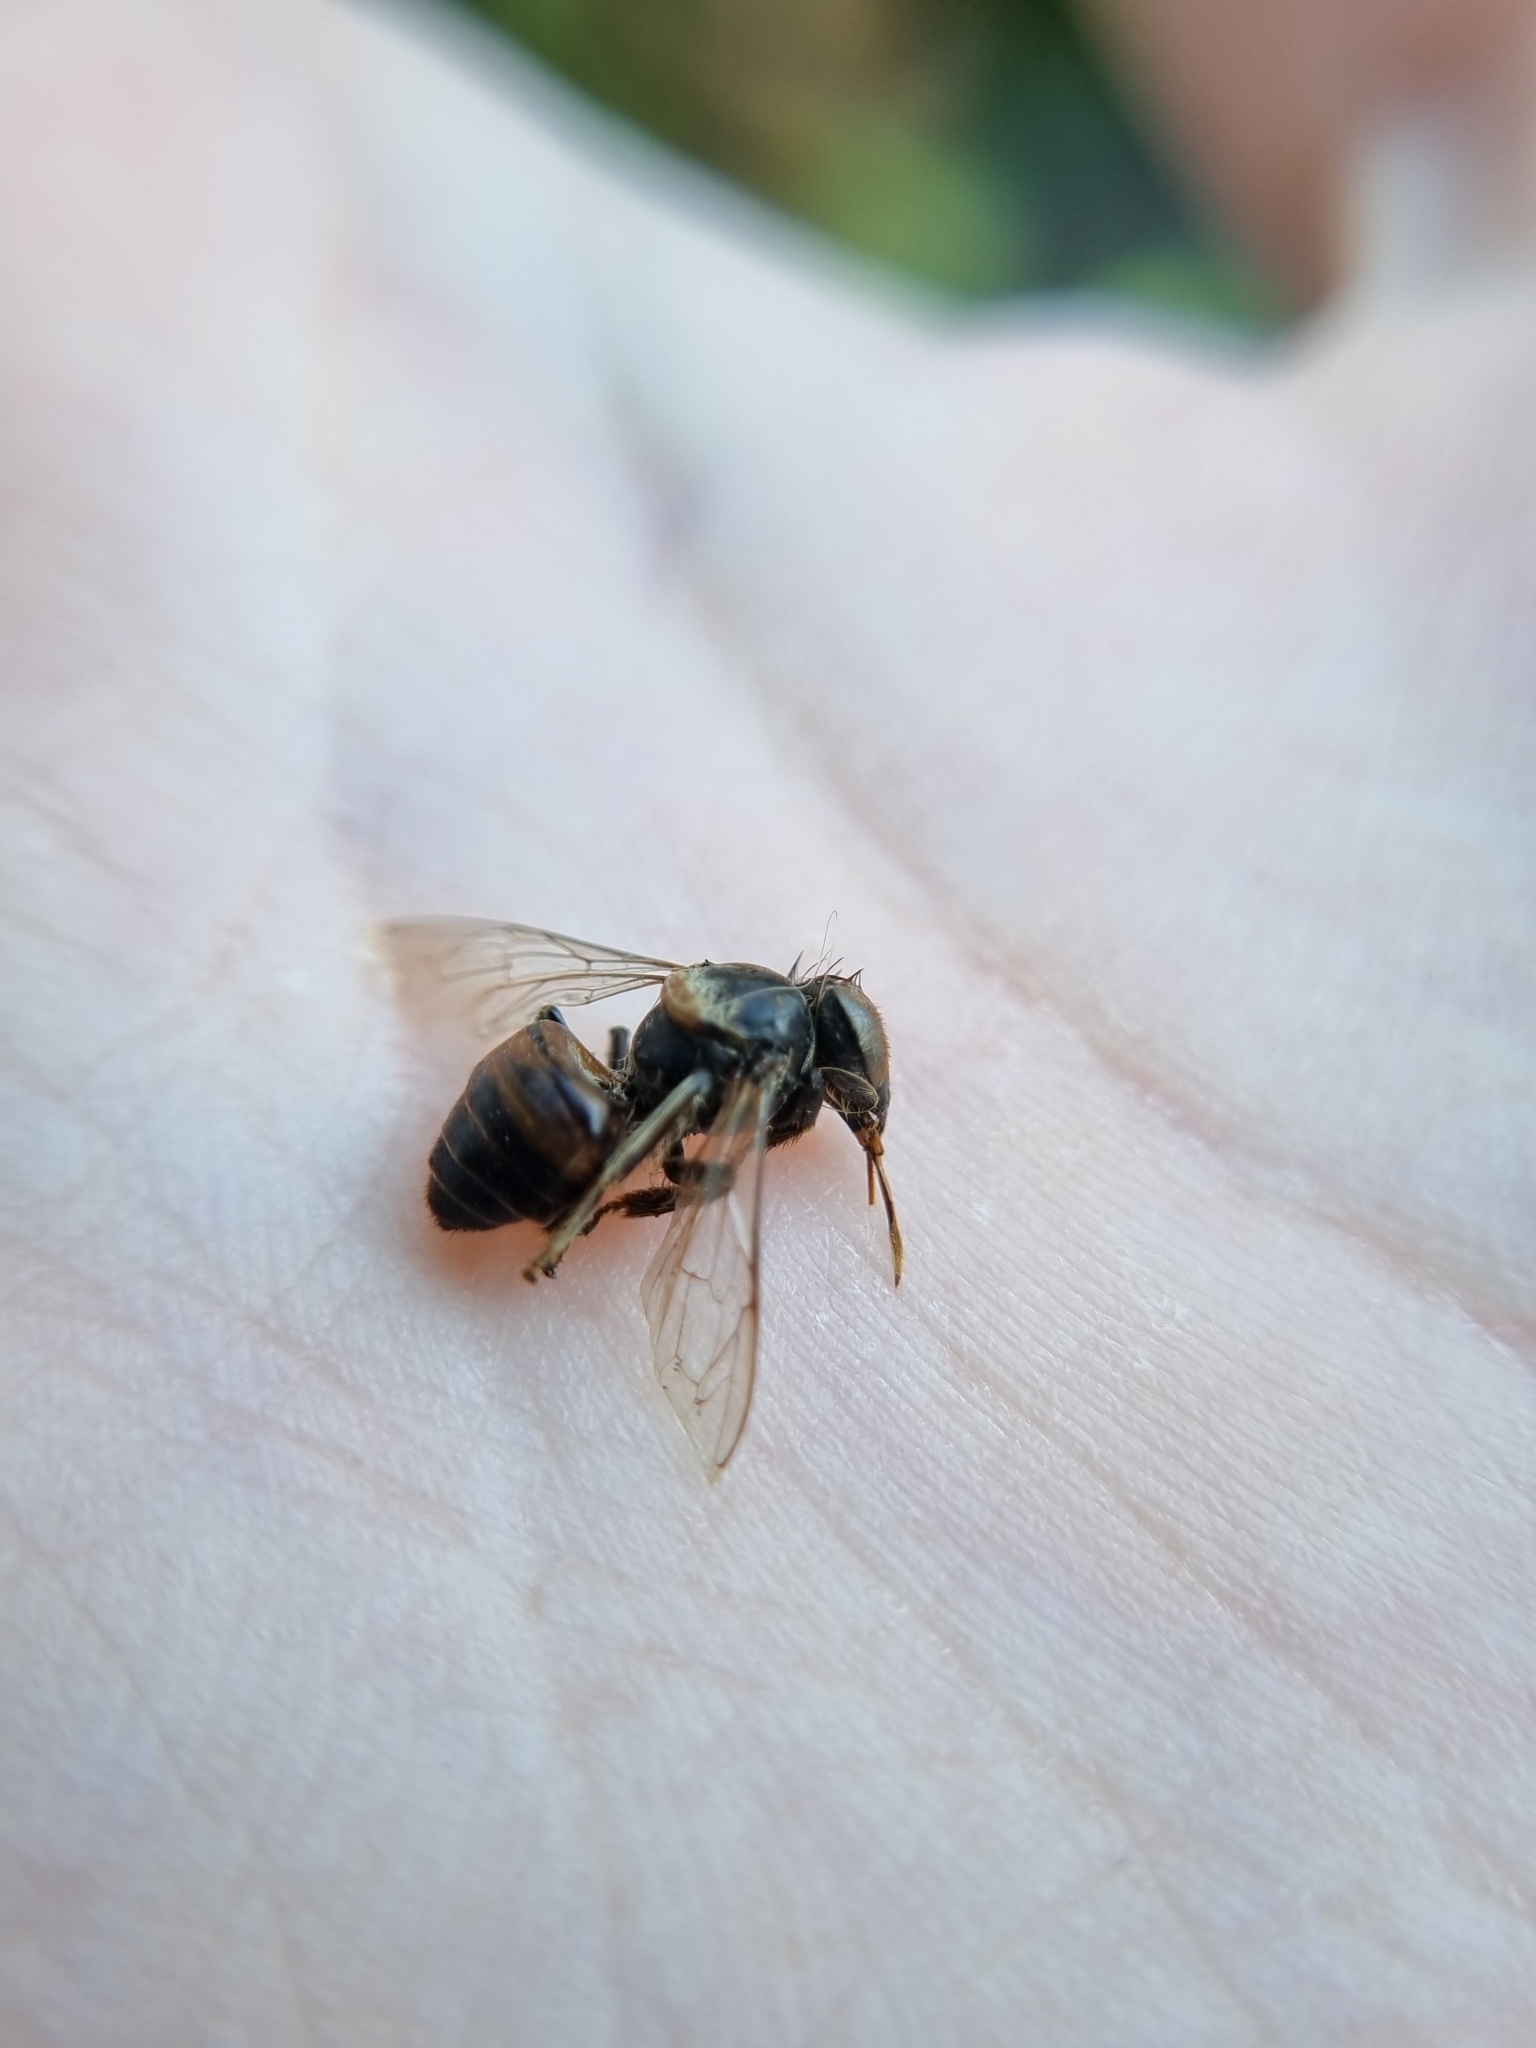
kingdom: Animalia
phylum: Arthropoda
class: Insecta
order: Hymenoptera
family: Apidae
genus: Apis
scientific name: Apis mellifera
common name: Honey bee
